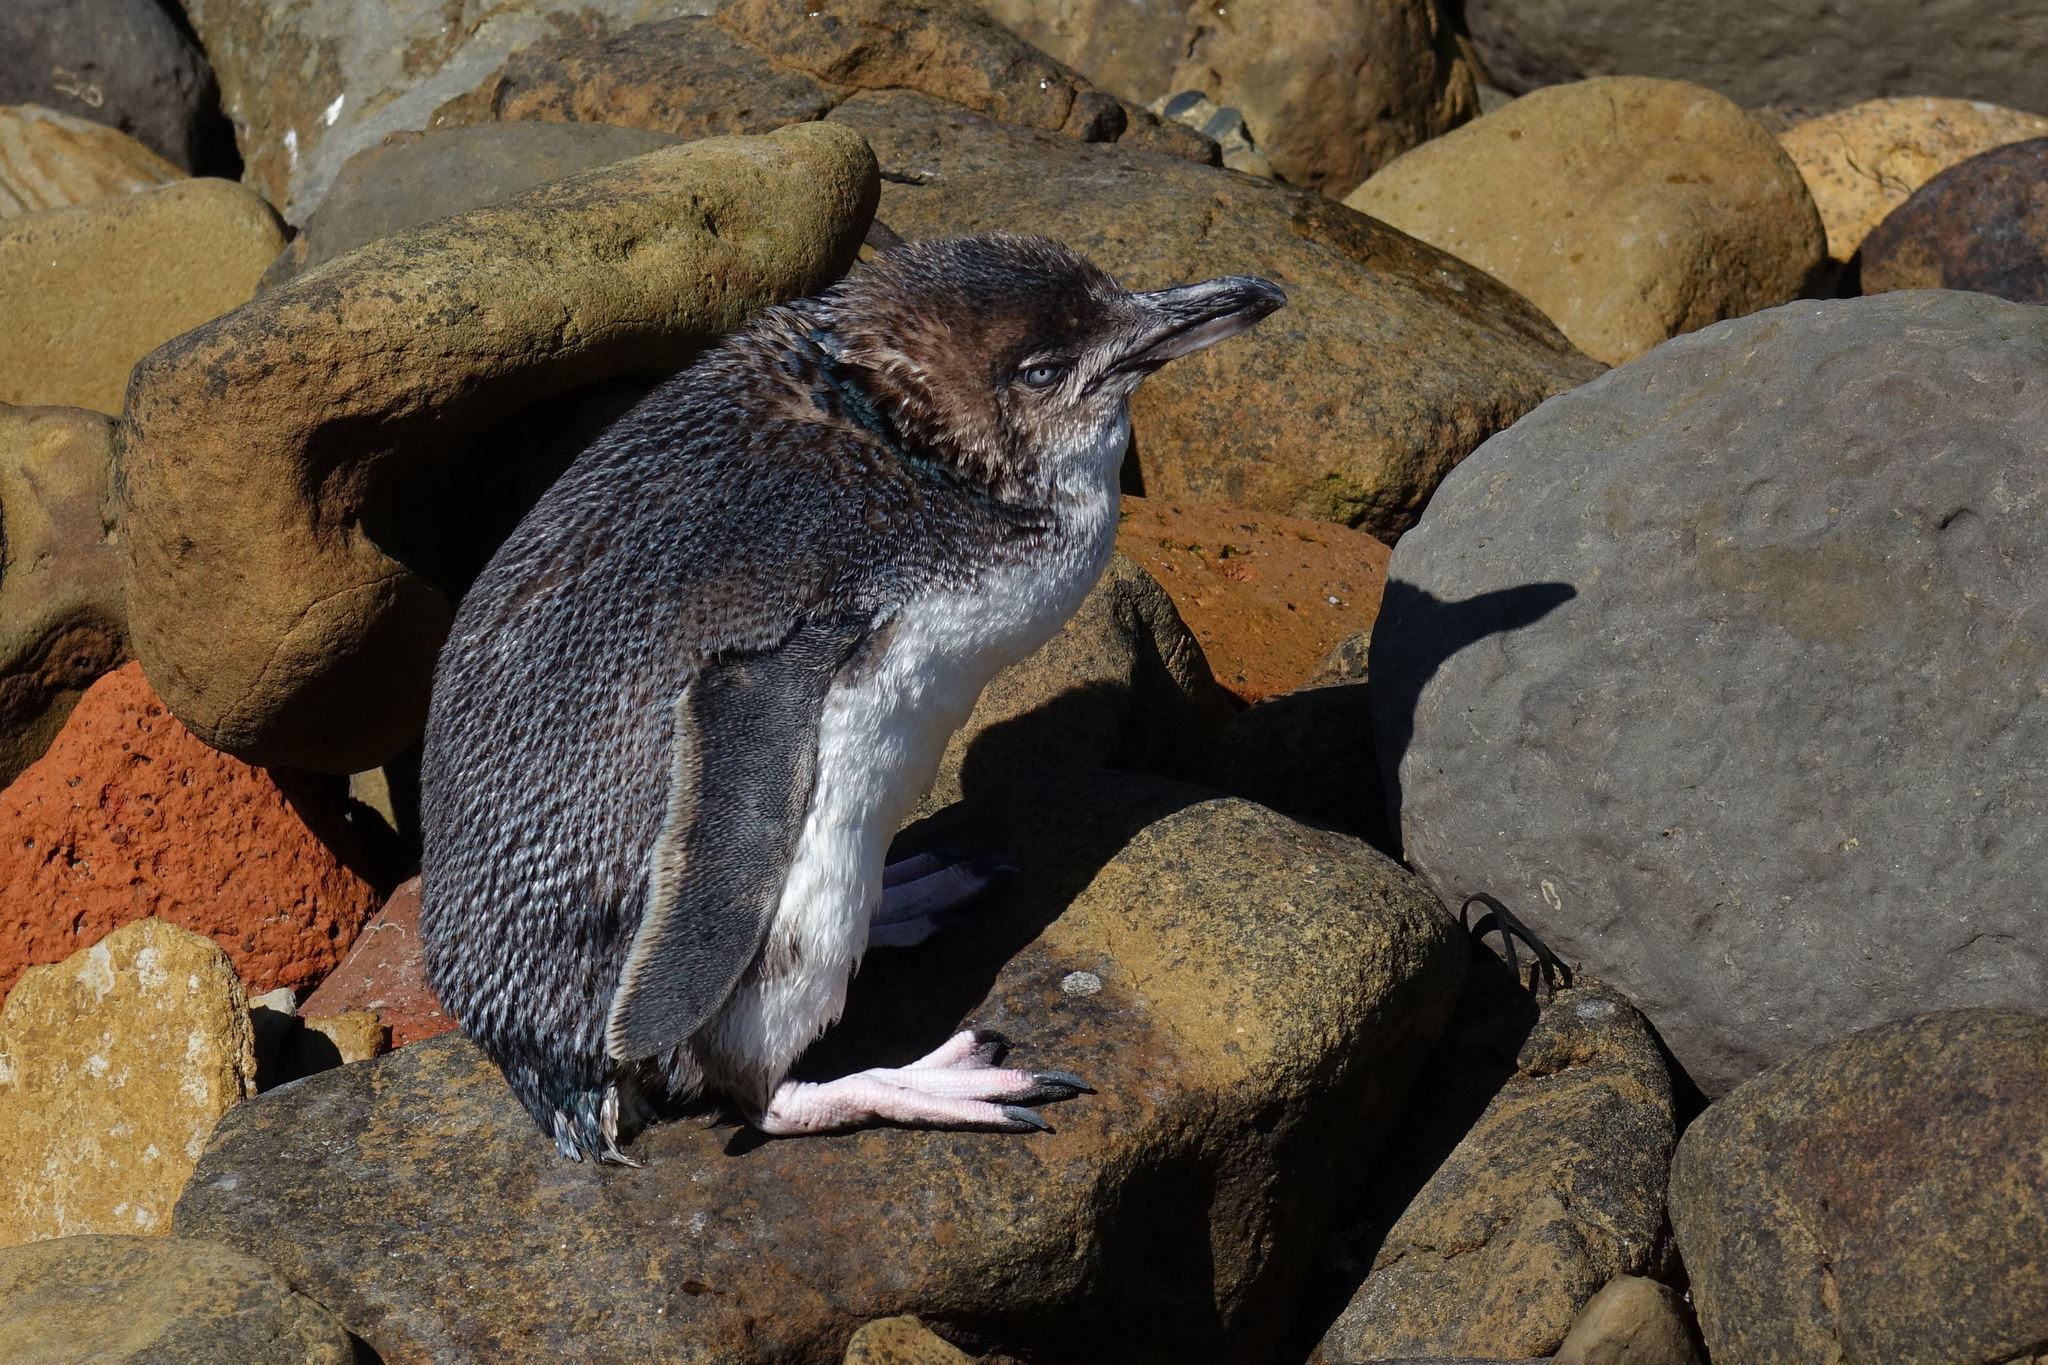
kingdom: Animalia
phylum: Chordata
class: Aves
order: Sphenisciformes
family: Spheniscidae
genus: Eudyptula
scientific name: Eudyptula minor
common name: Little penguin
